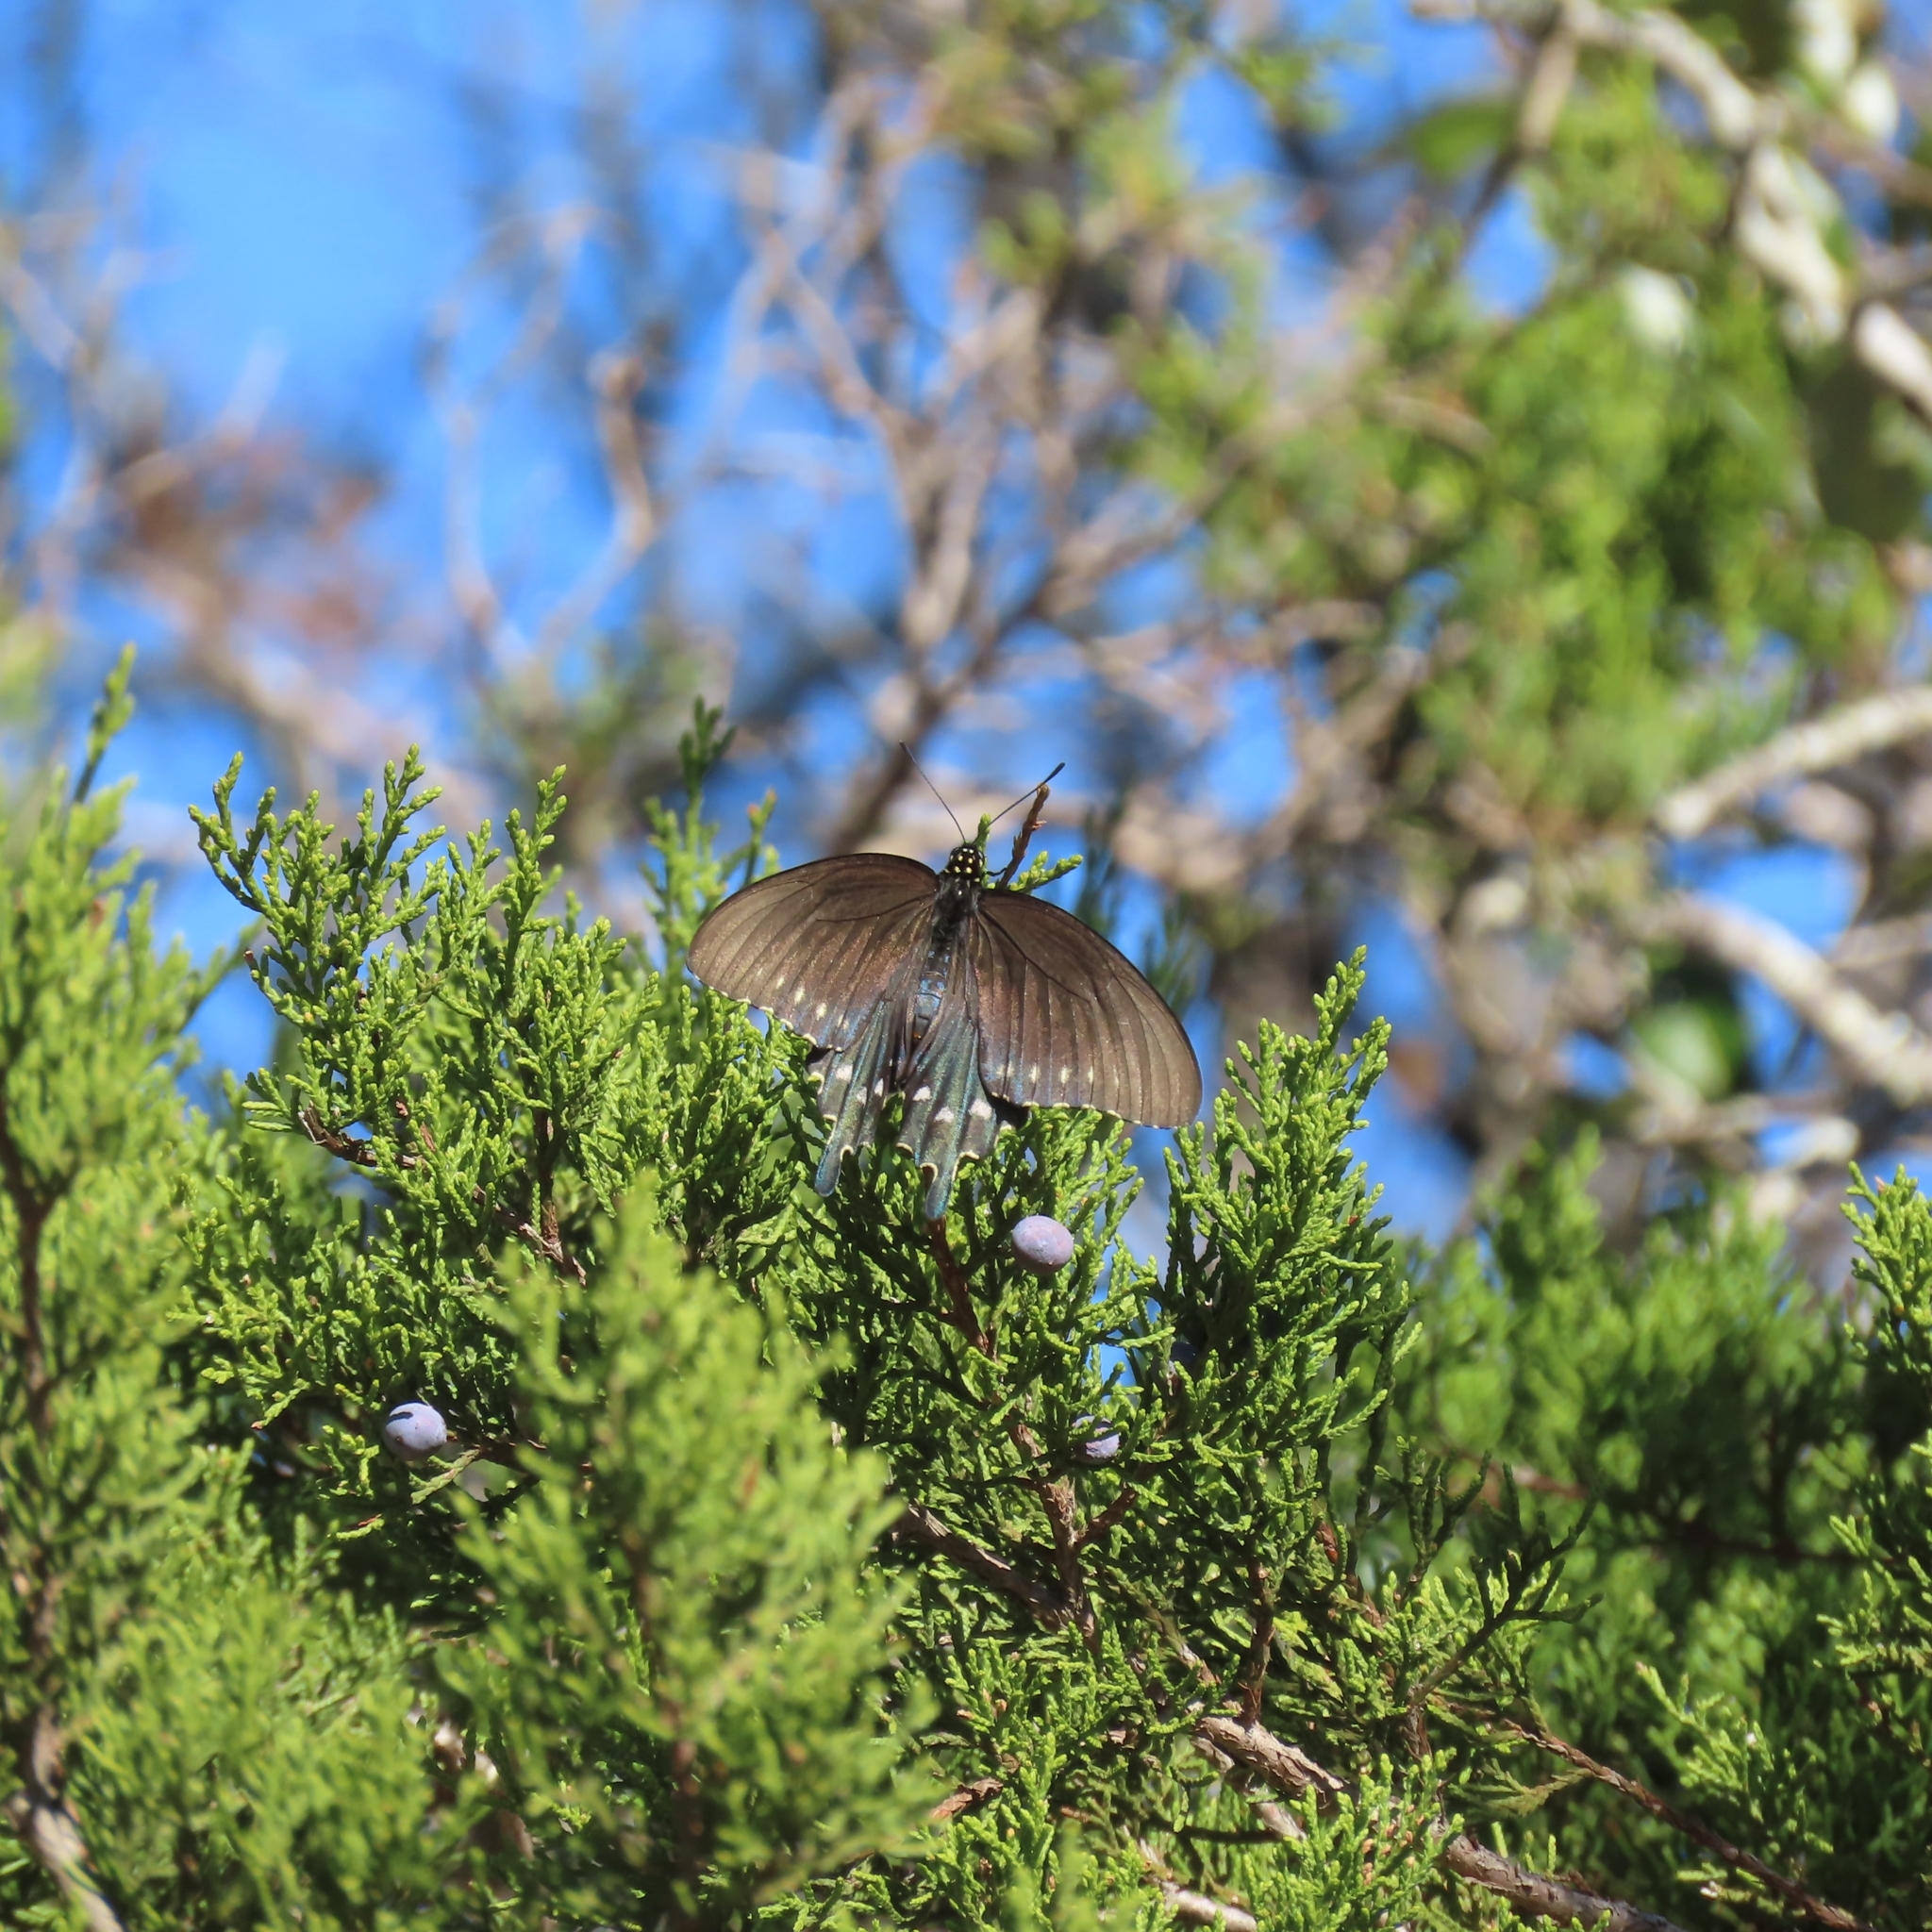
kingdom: Animalia
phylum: Arthropoda
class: Insecta
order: Lepidoptera
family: Papilionidae
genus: Battus
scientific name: Battus philenor
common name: Pipevine swallowtail
